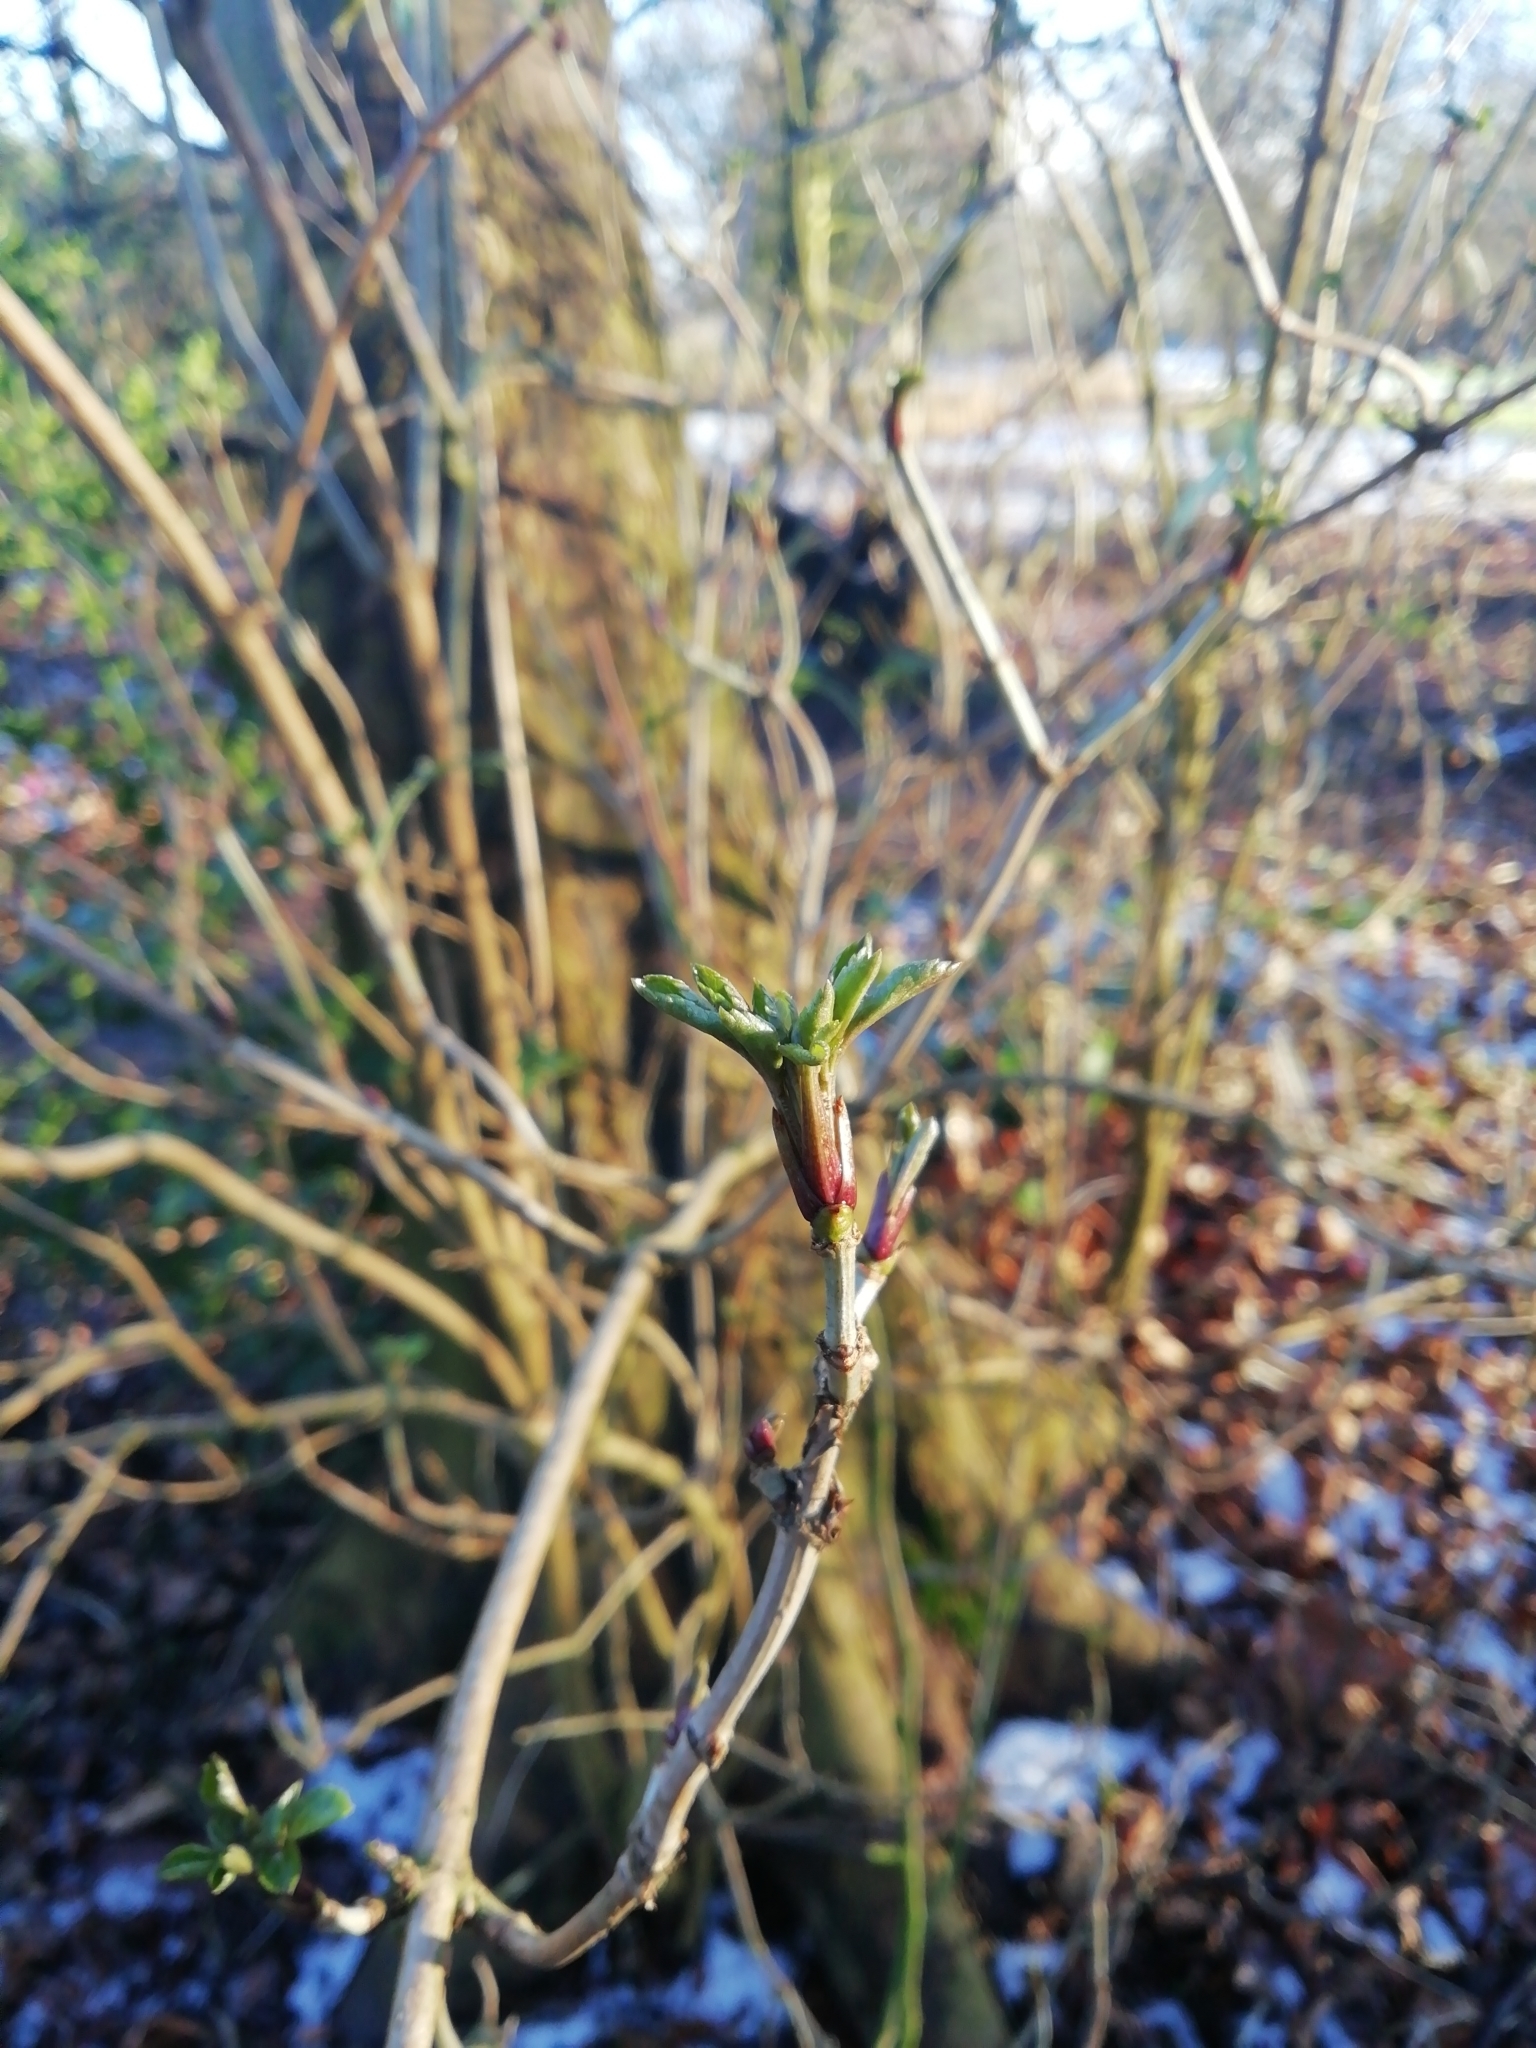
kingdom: Plantae
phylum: Tracheophyta
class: Magnoliopsida
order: Dipsacales
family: Viburnaceae
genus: Sambucus
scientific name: Sambucus nigra
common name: Elder
